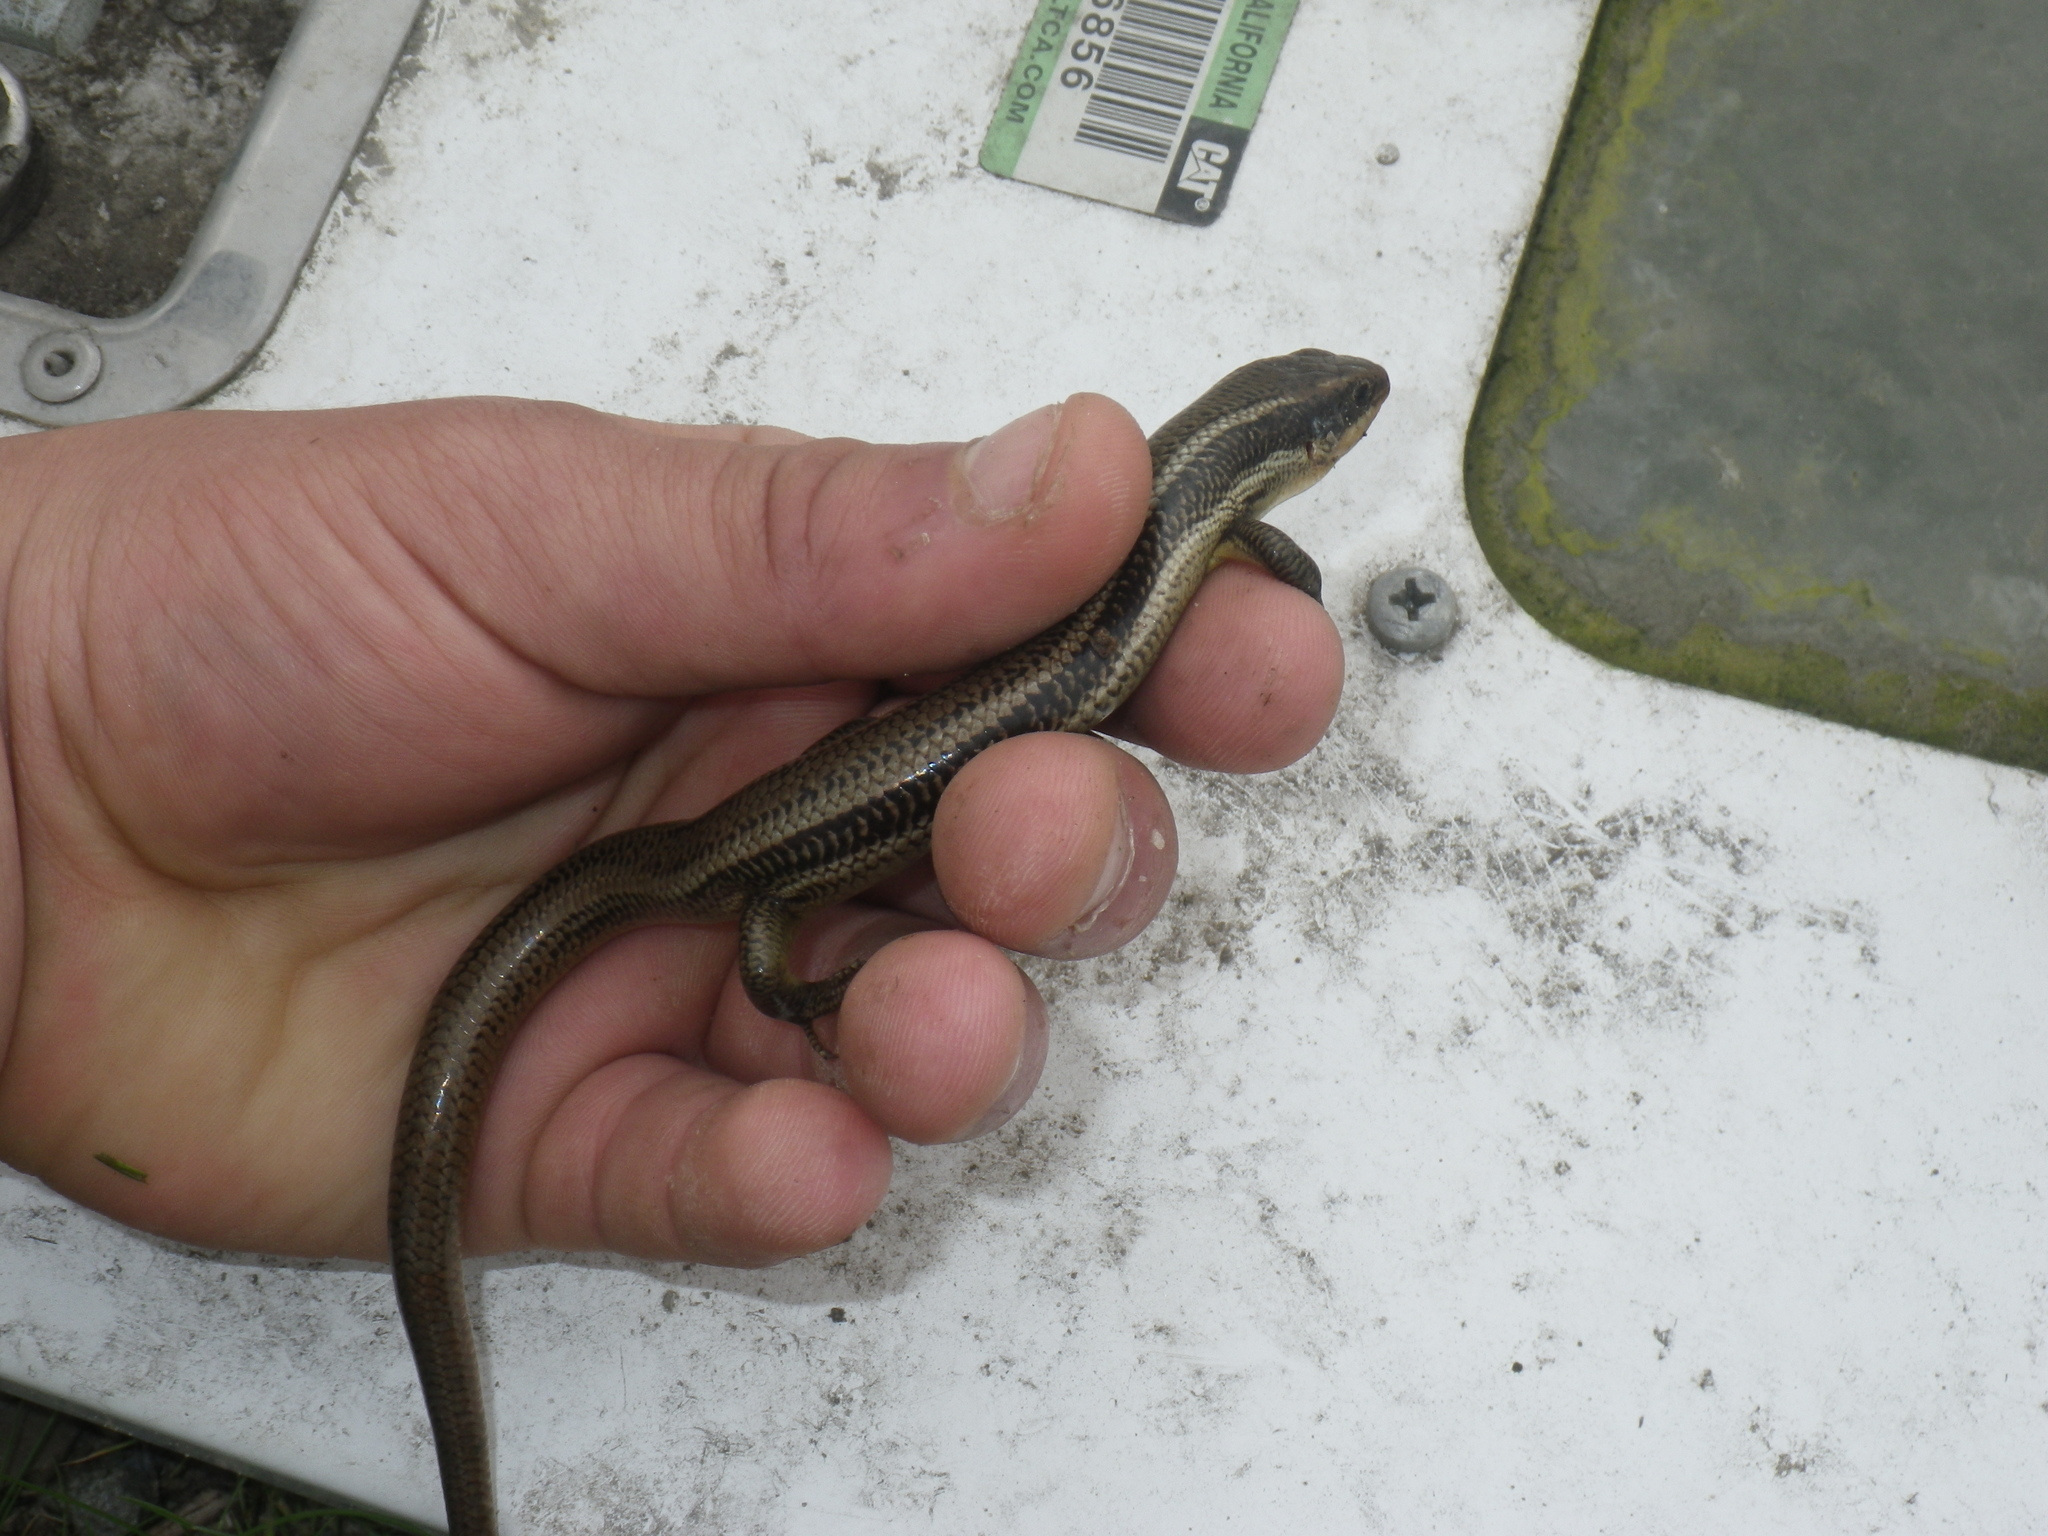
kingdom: Animalia
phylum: Chordata
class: Squamata
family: Scincidae
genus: Plestiodon
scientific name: Plestiodon gilberti
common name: Gilbert's skink
